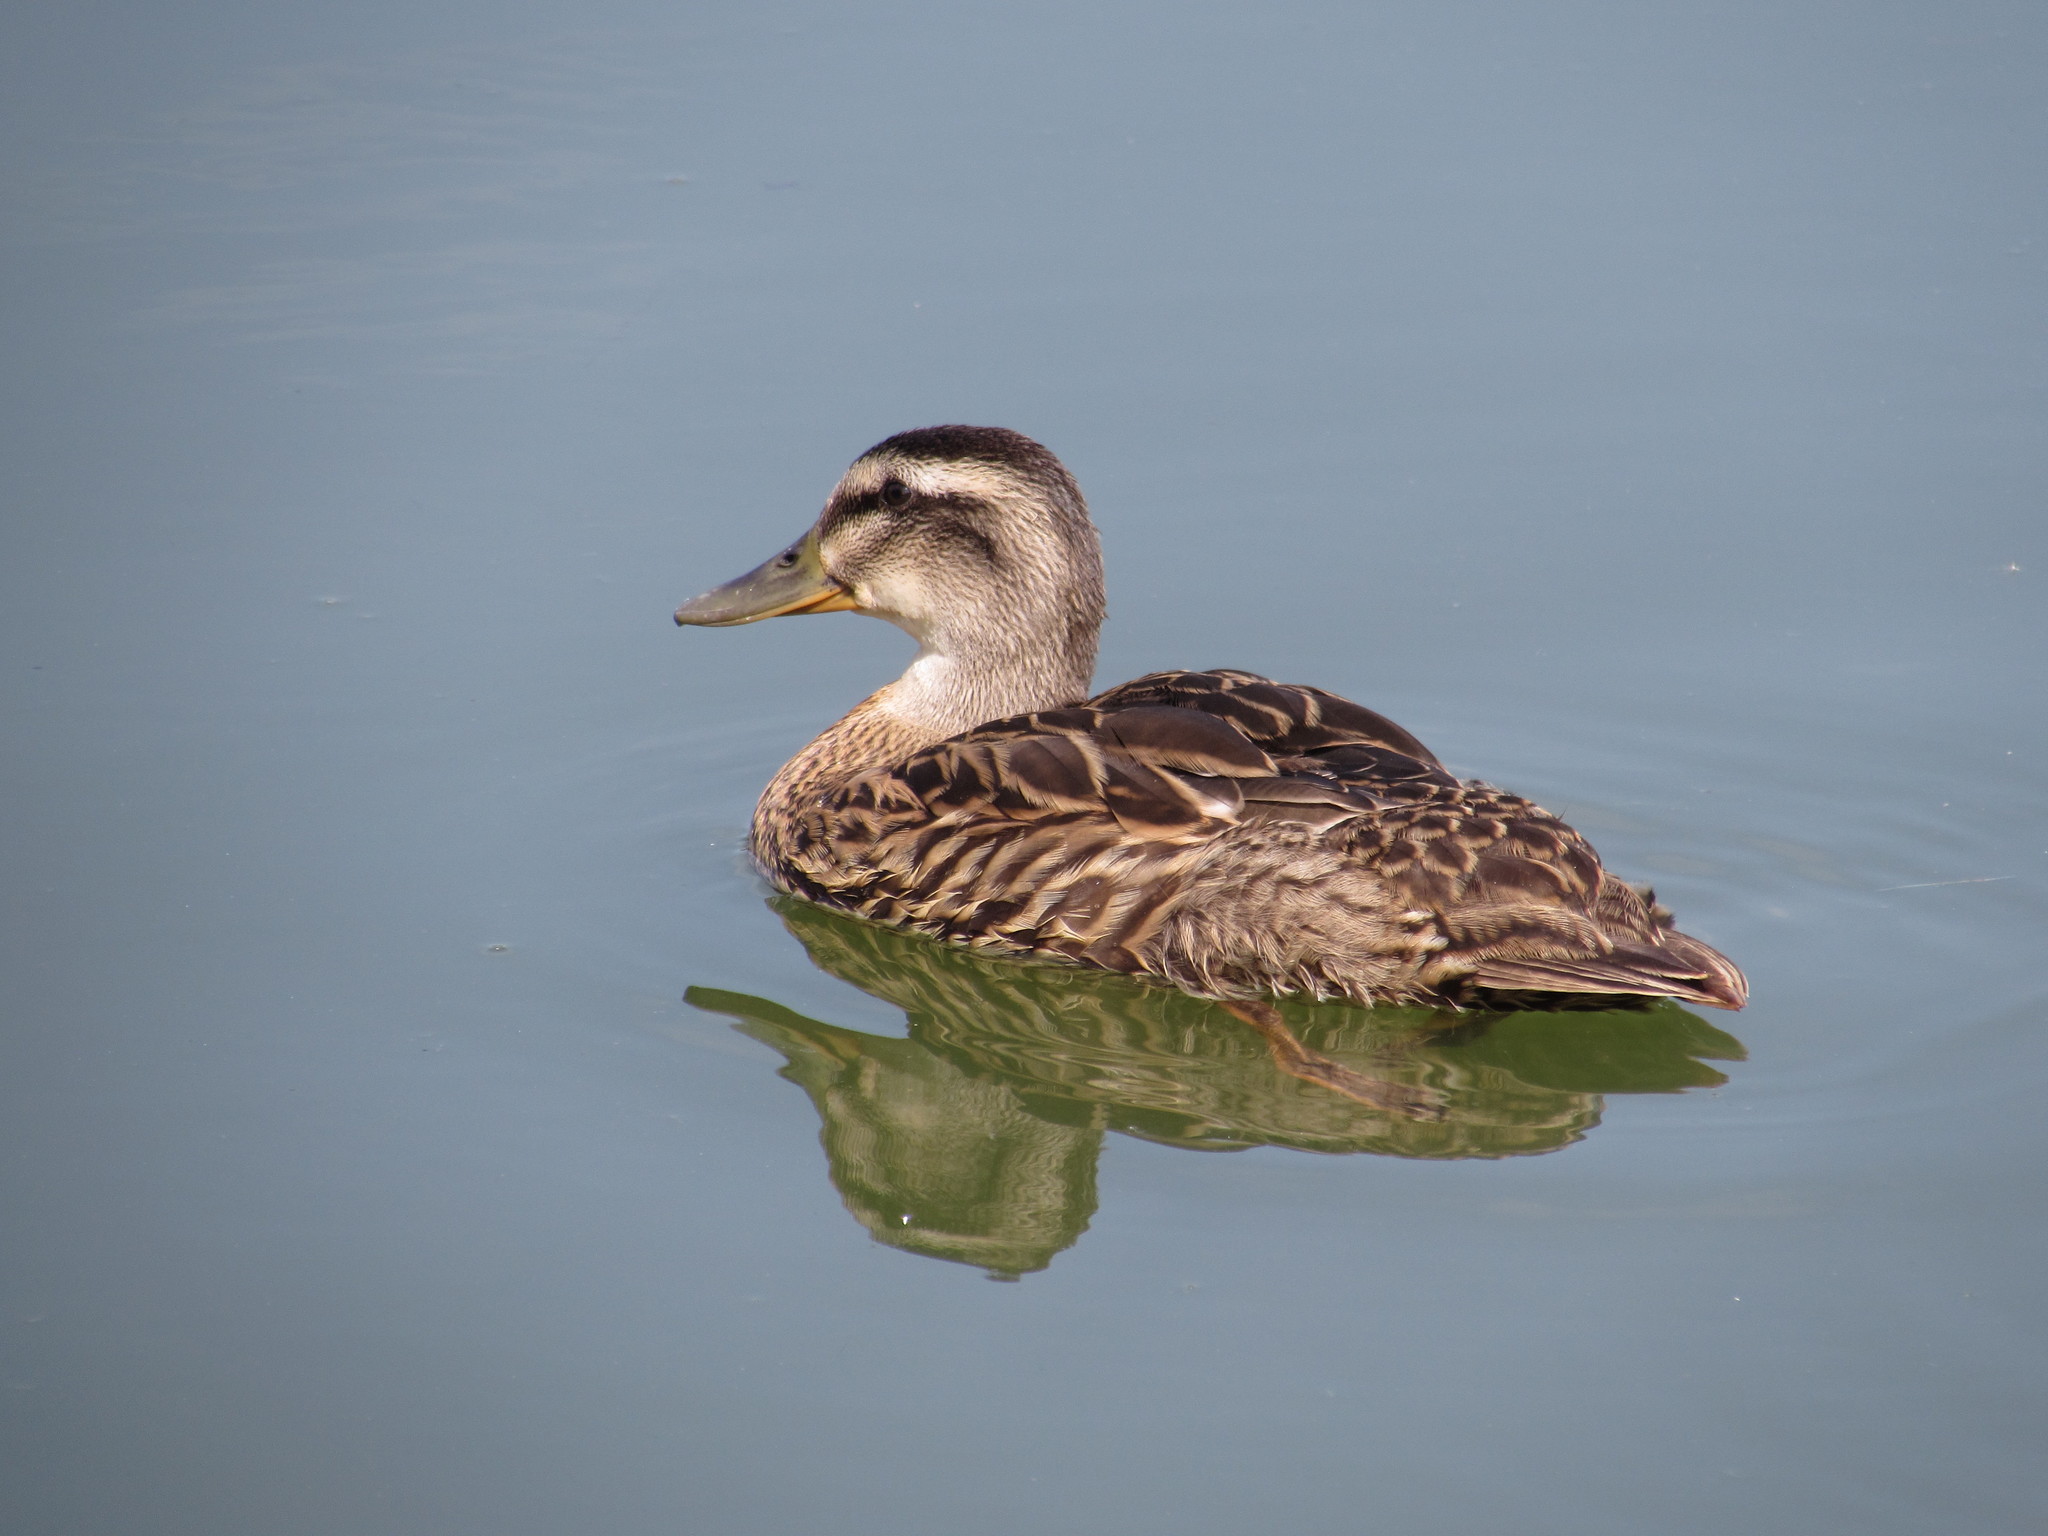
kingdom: Animalia
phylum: Chordata
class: Aves
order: Anseriformes
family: Anatidae
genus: Anas
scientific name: Anas platyrhynchos
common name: Mallard
